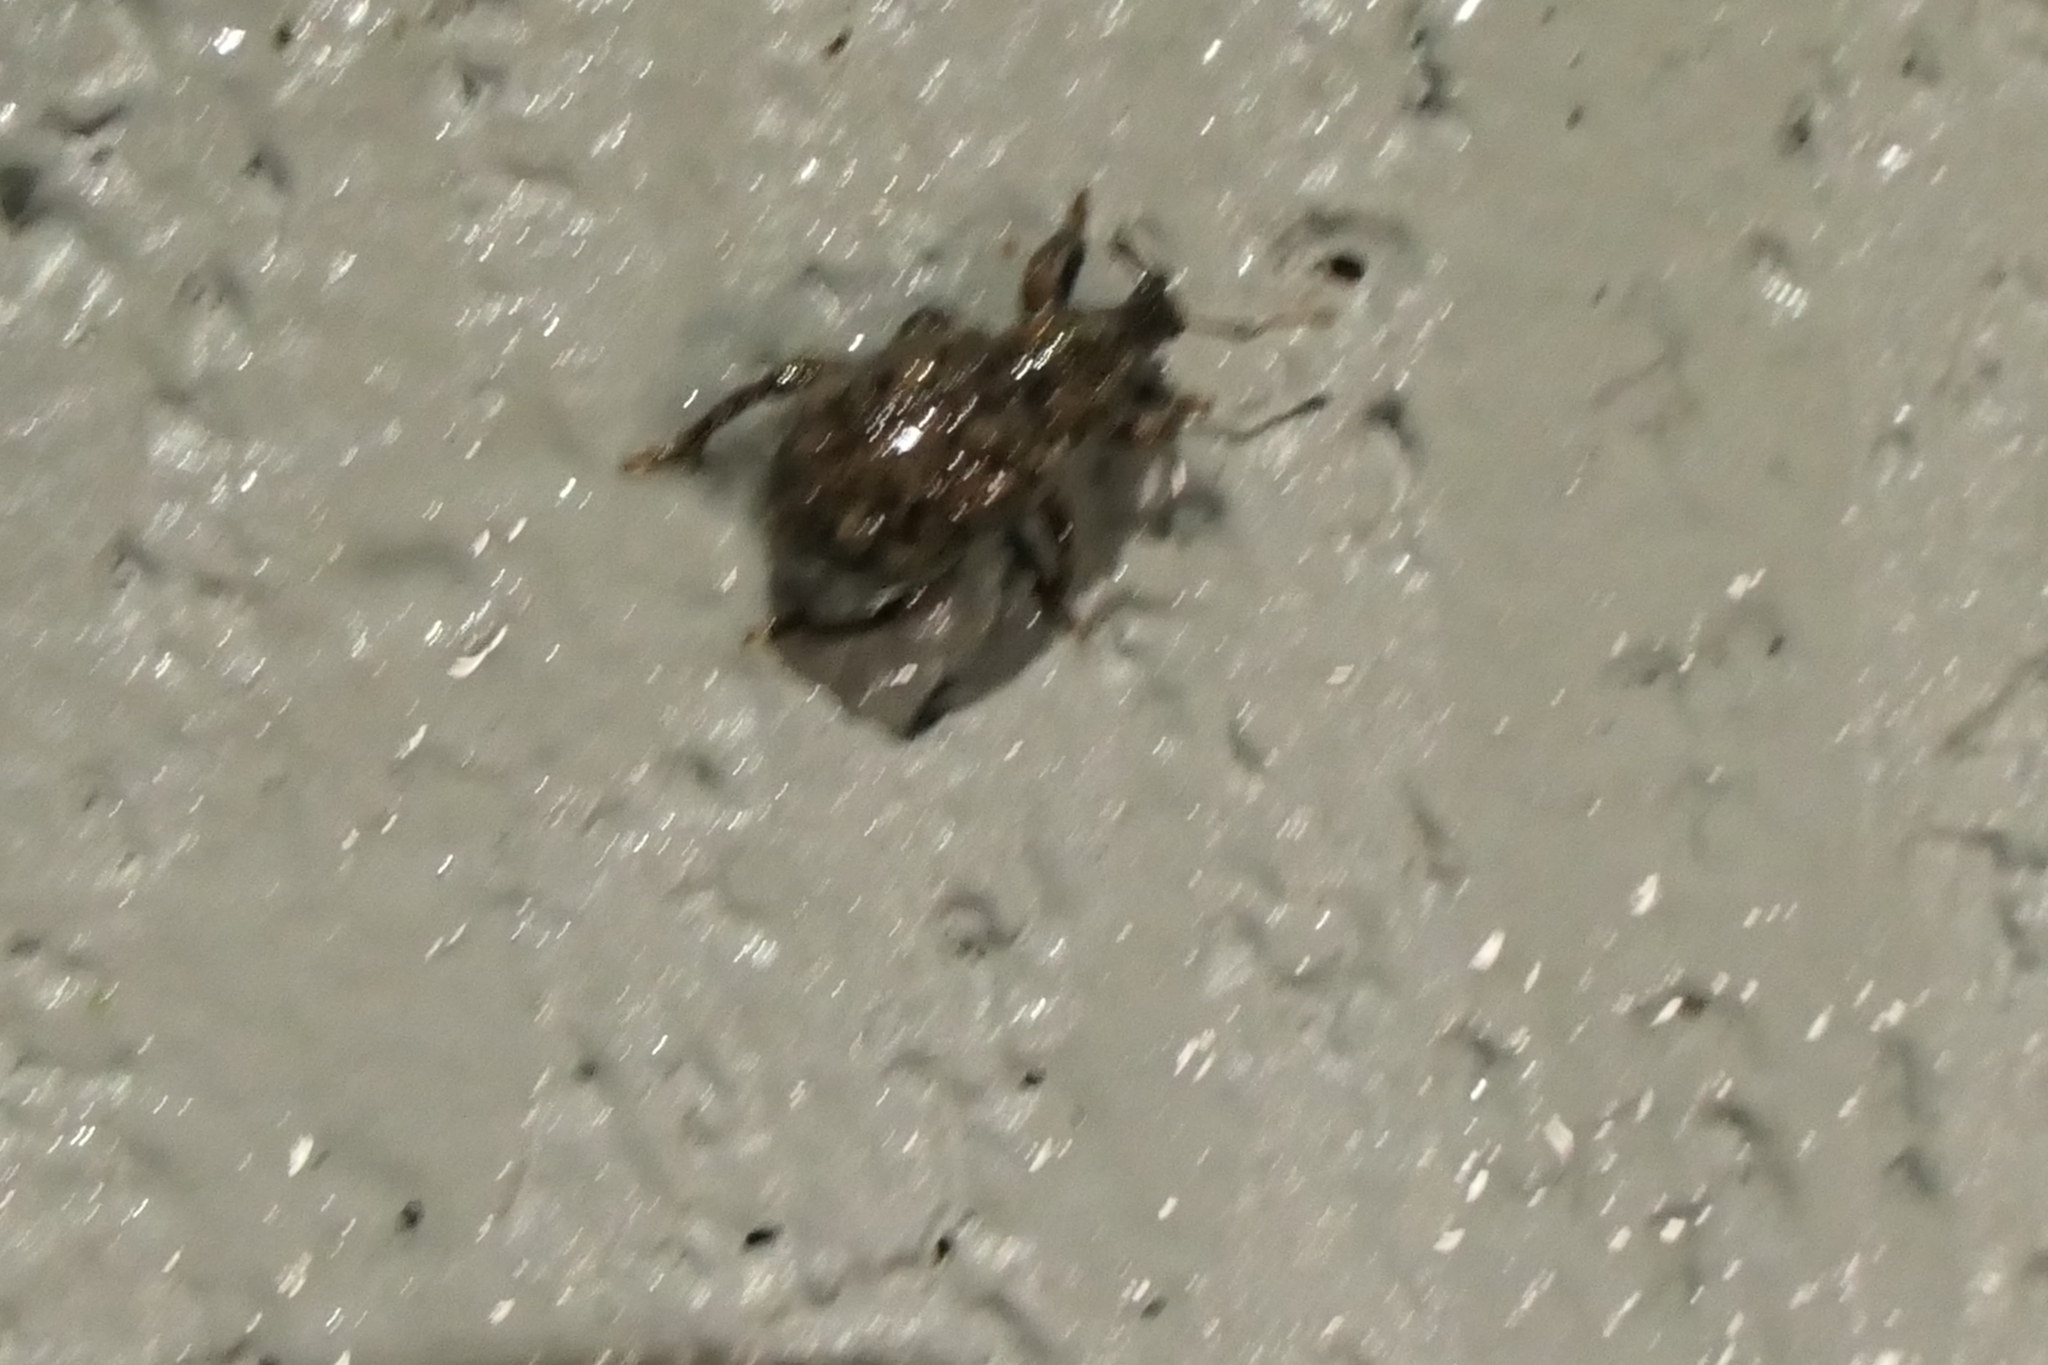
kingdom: Animalia
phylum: Arthropoda
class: Insecta
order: Coleoptera
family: Curculionidae
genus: Epitimetes
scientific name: Epitimetes grisealis
